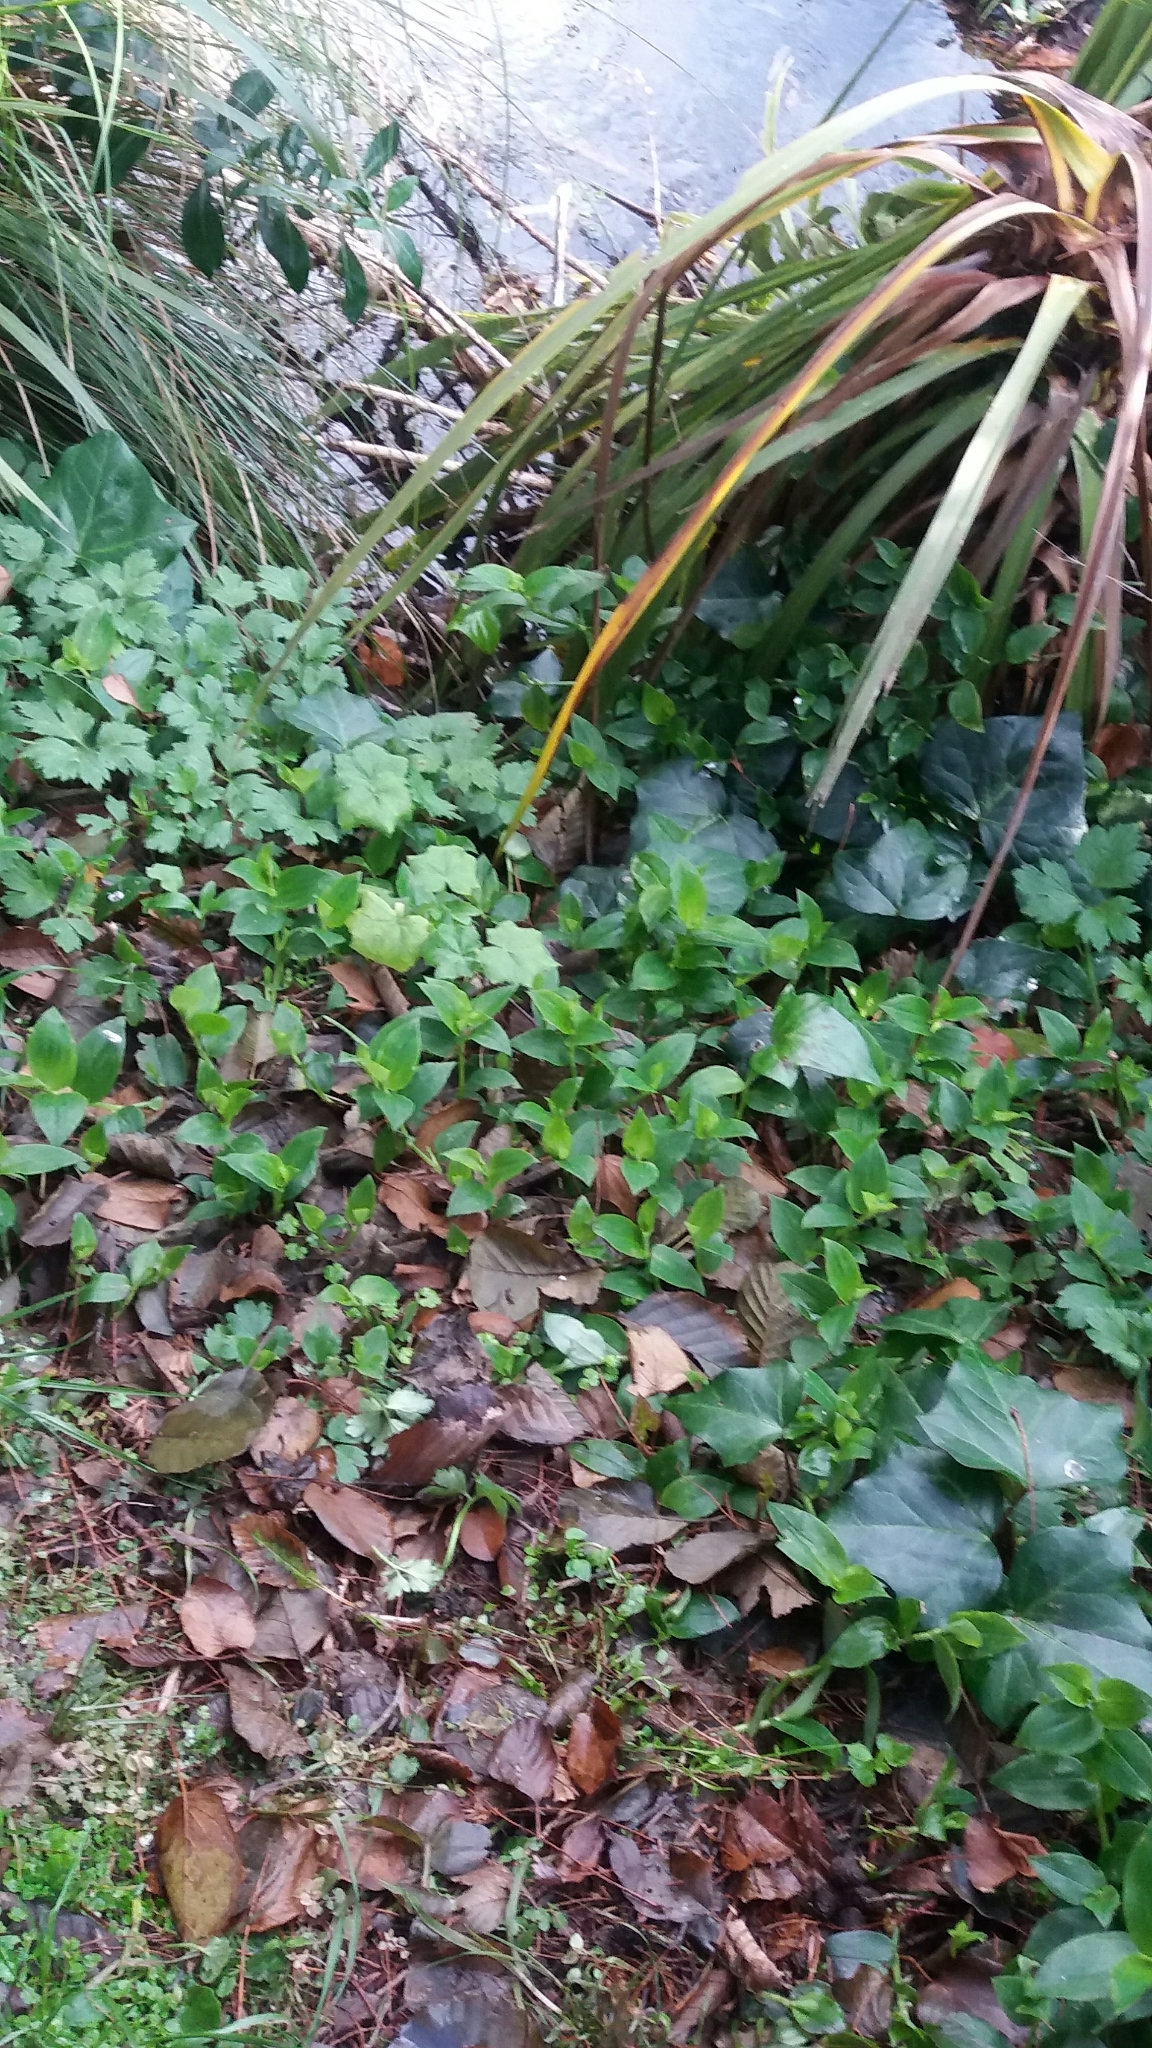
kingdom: Plantae
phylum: Tracheophyta
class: Liliopsida
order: Commelinales
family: Commelinaceae
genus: Tradescantia
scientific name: Tradescantia fluminensis
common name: Wandering-jew
